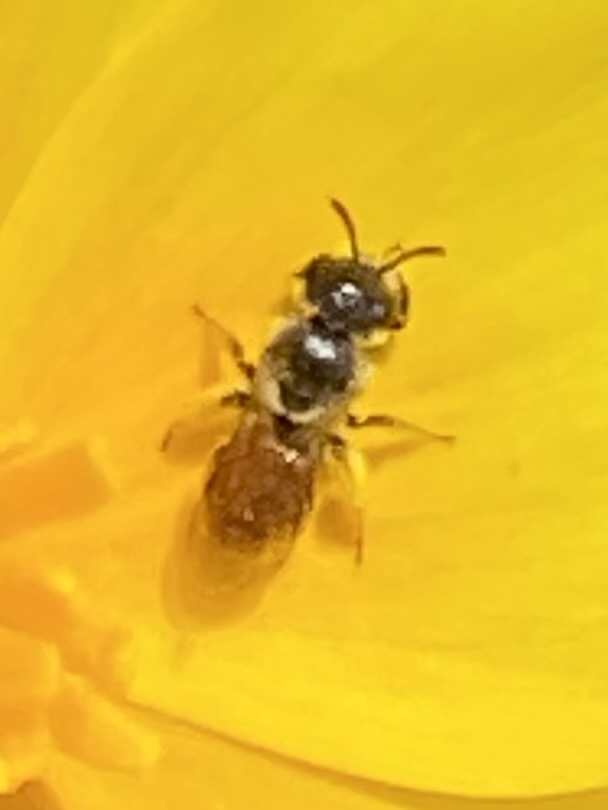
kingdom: Animalia
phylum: Arthropoda
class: Insecta
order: Hymenoptera
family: Halictidae
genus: Micralictoides
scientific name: Micralictoides ruficaudus
